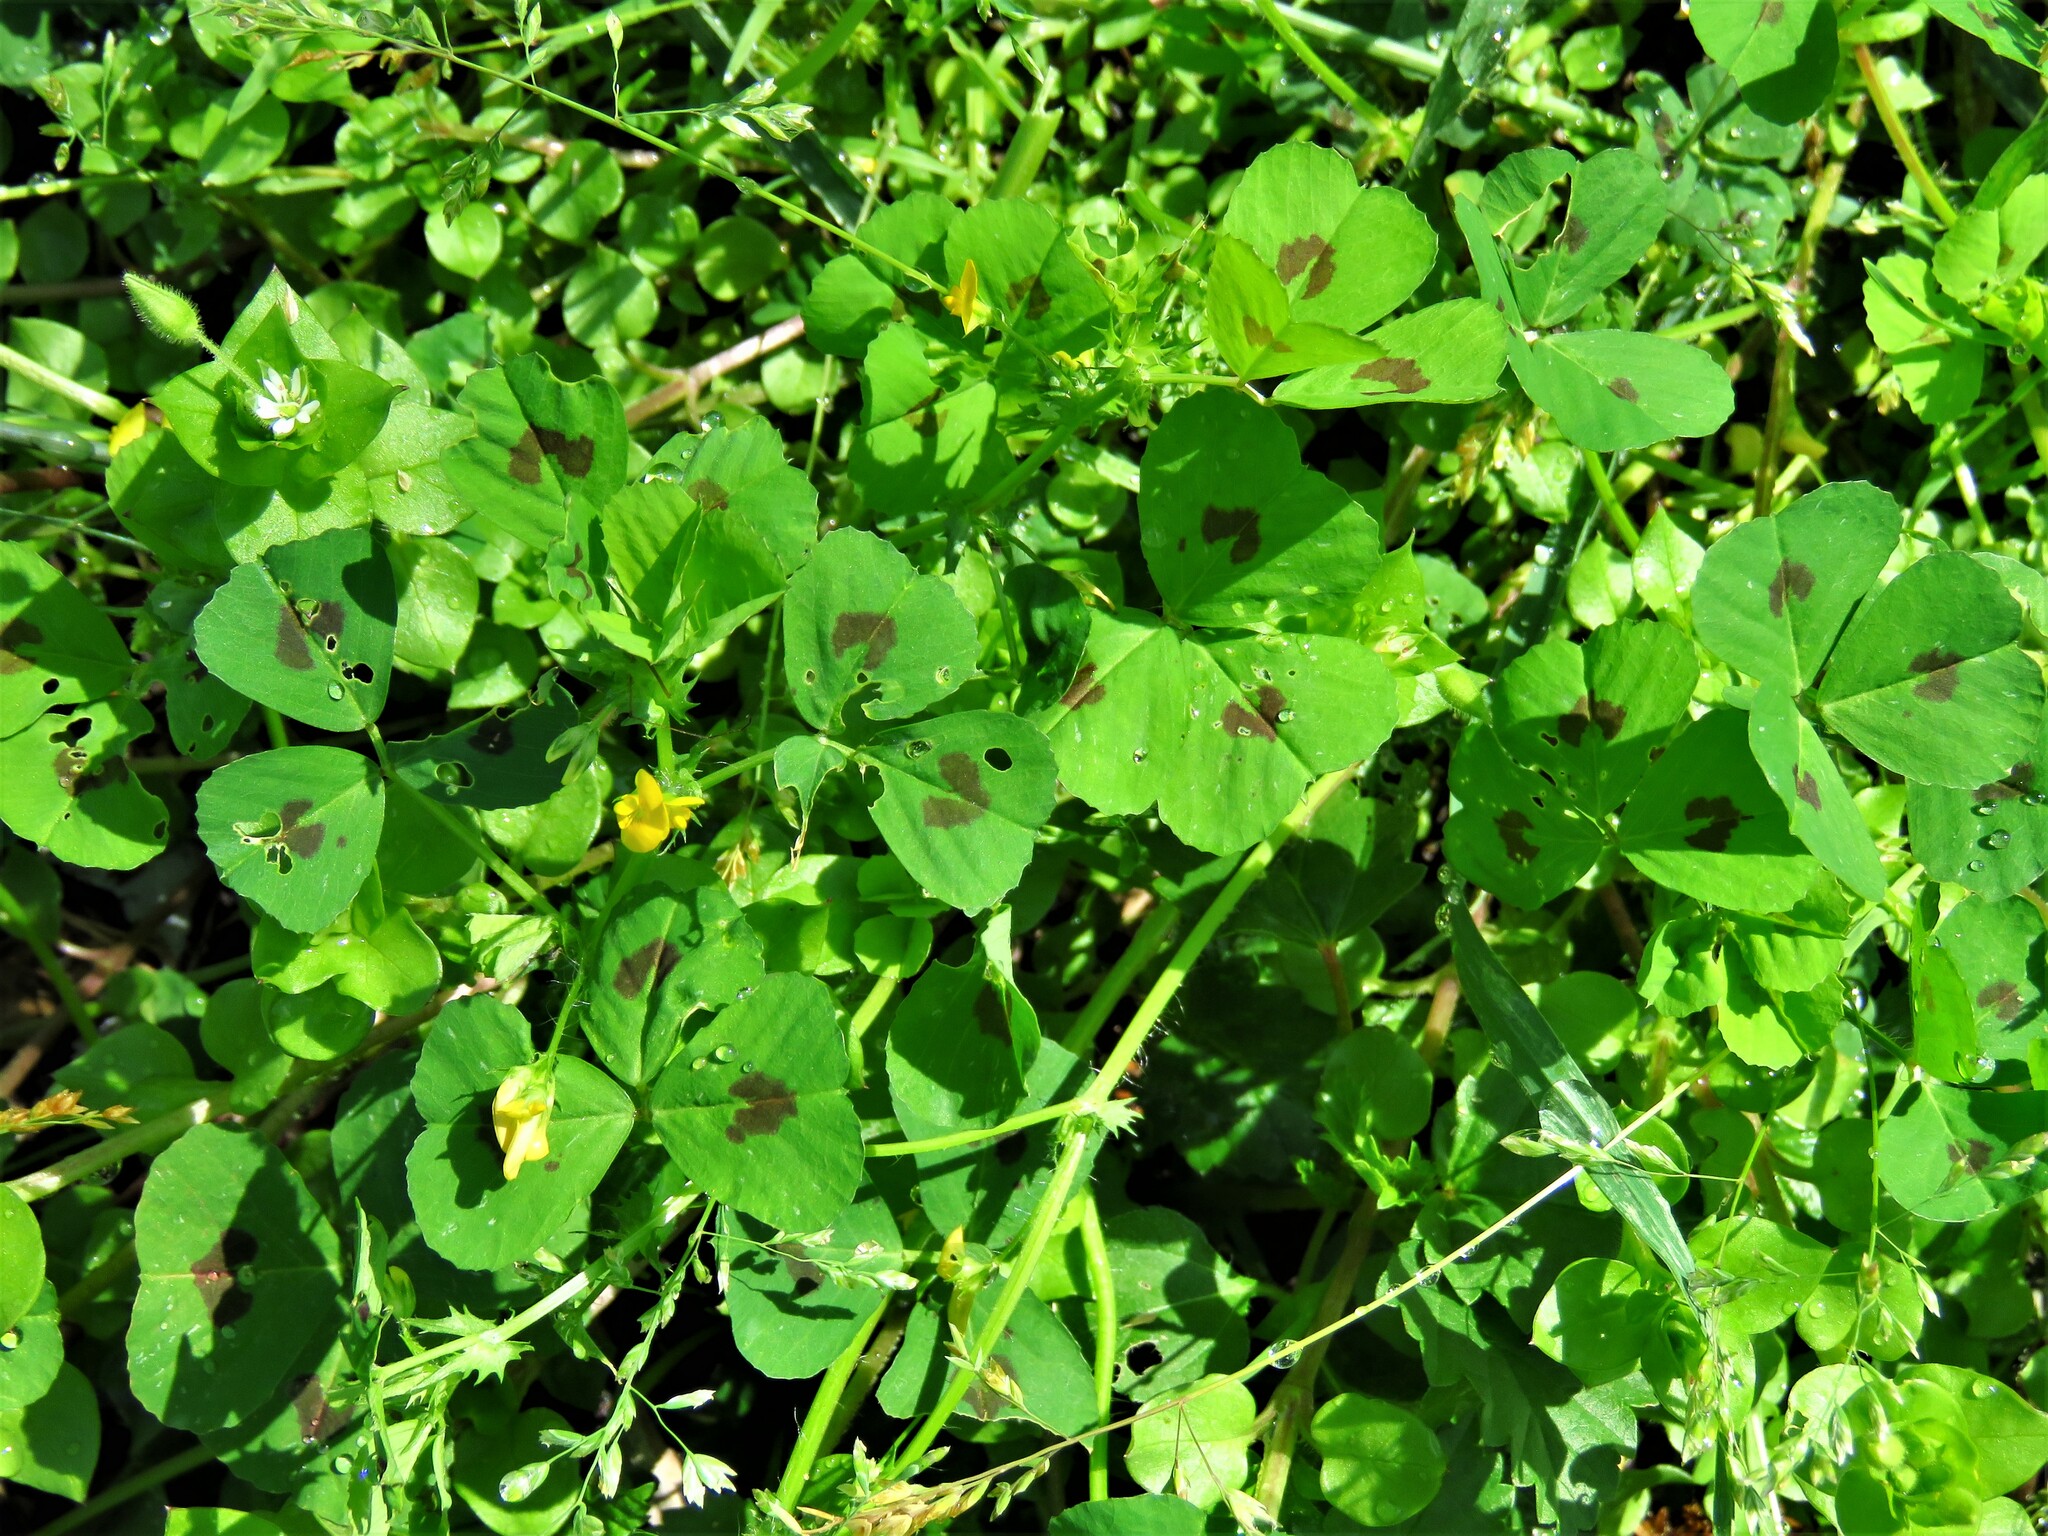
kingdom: Plantae
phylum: Tracheophyta
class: Magnoliopsida
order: Fabales
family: Fabaceae
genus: Medicago
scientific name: Medicago arabica
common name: Spotted medick
